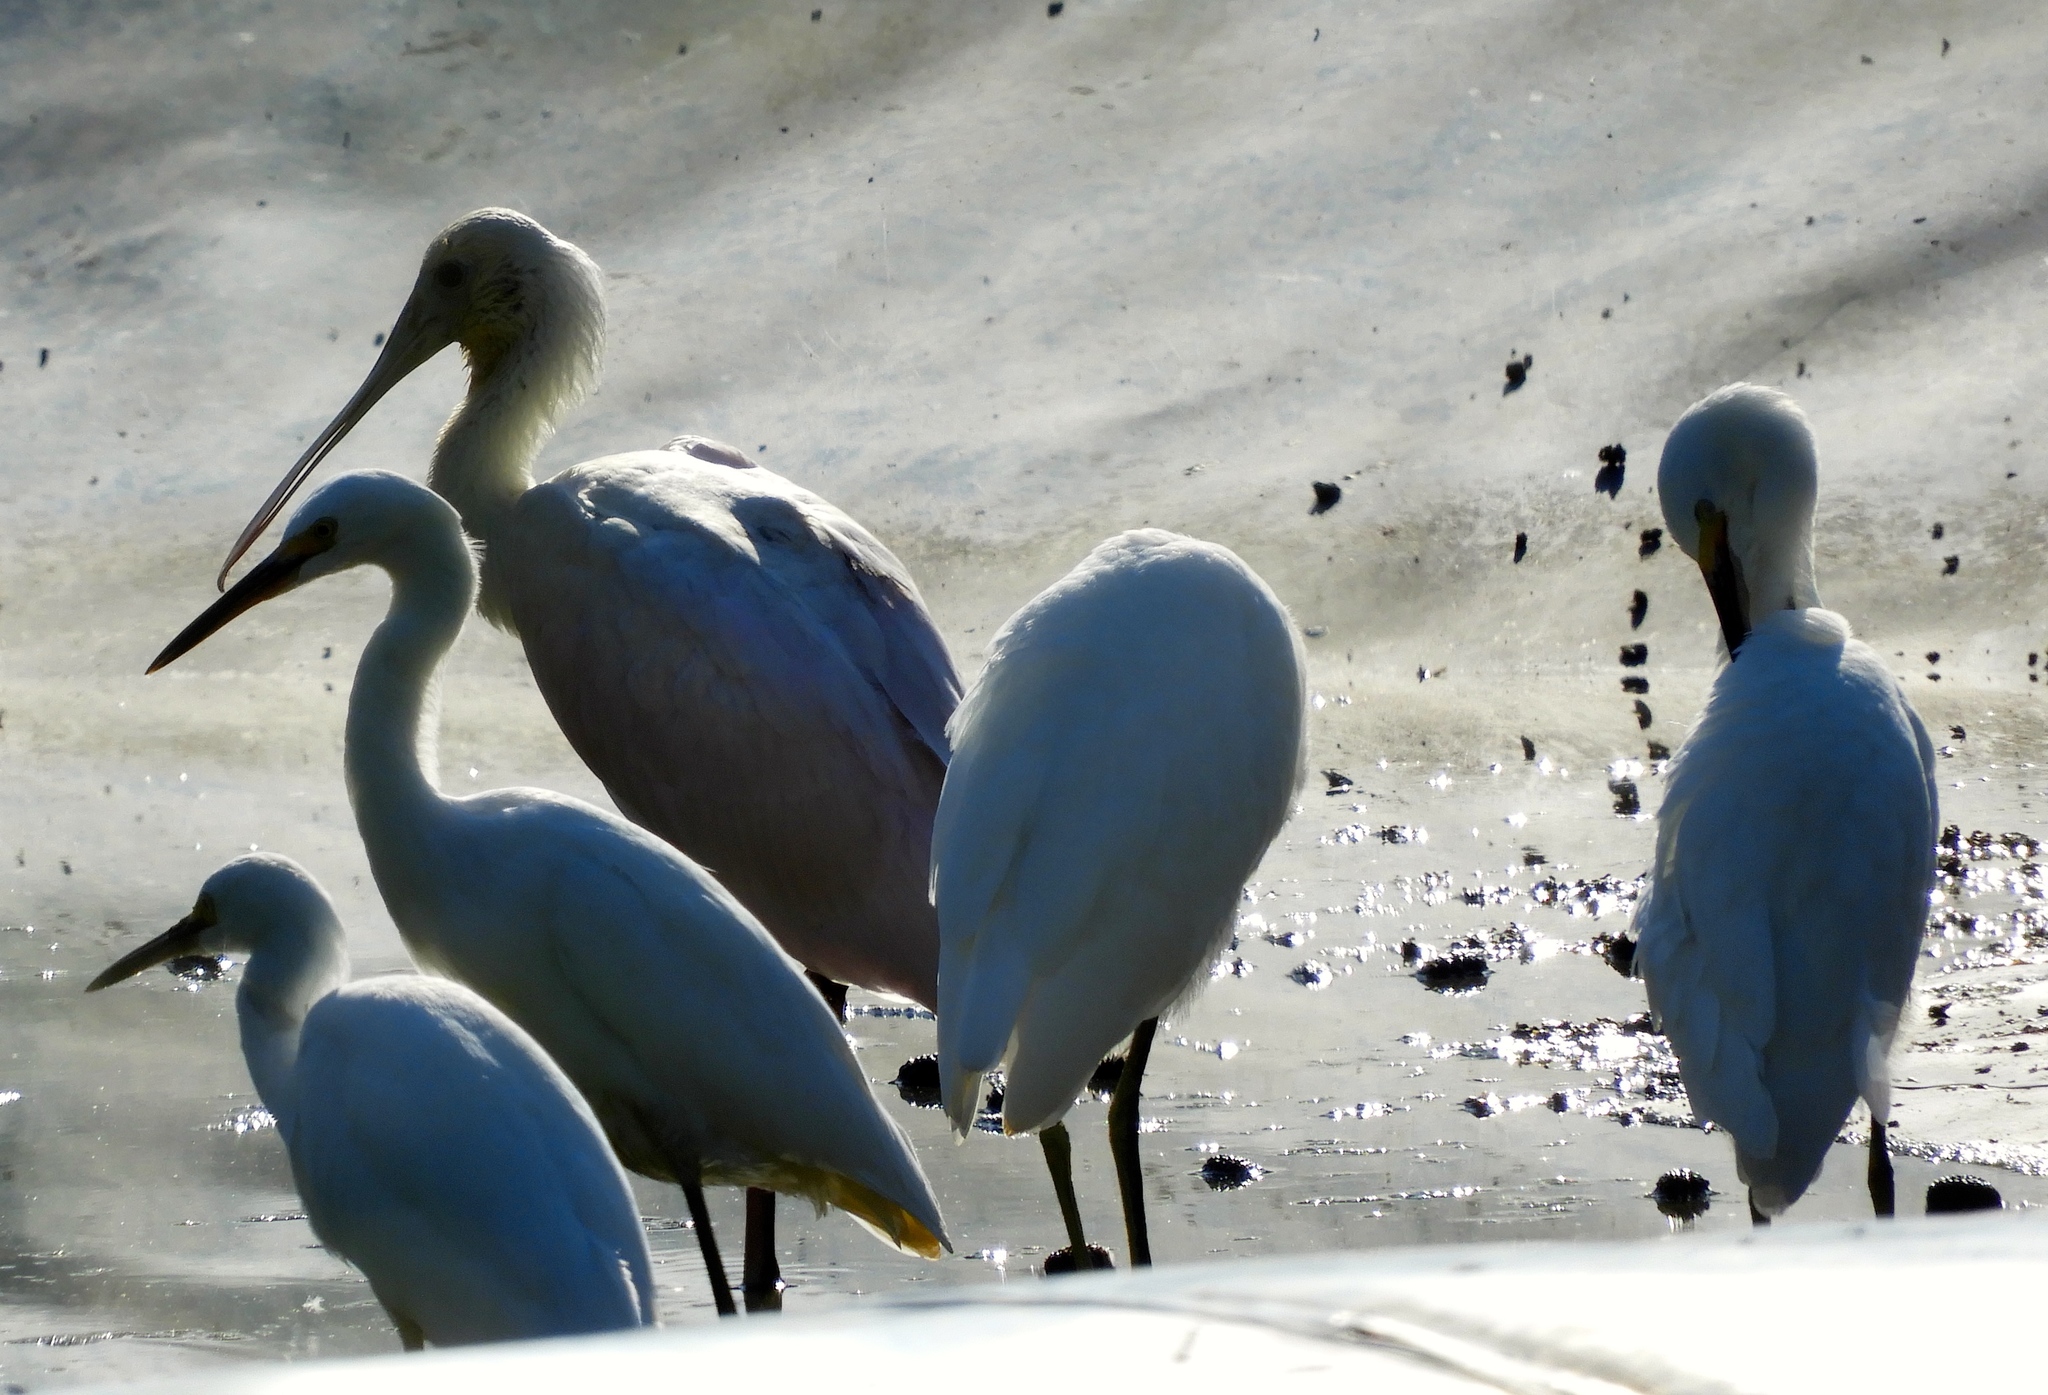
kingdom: Animalia
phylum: Chordata
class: Aves
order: Pelecaniformes
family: Threskiornithidae
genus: Platalea
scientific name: Platalea ajaja
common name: Roseate spoonbill
